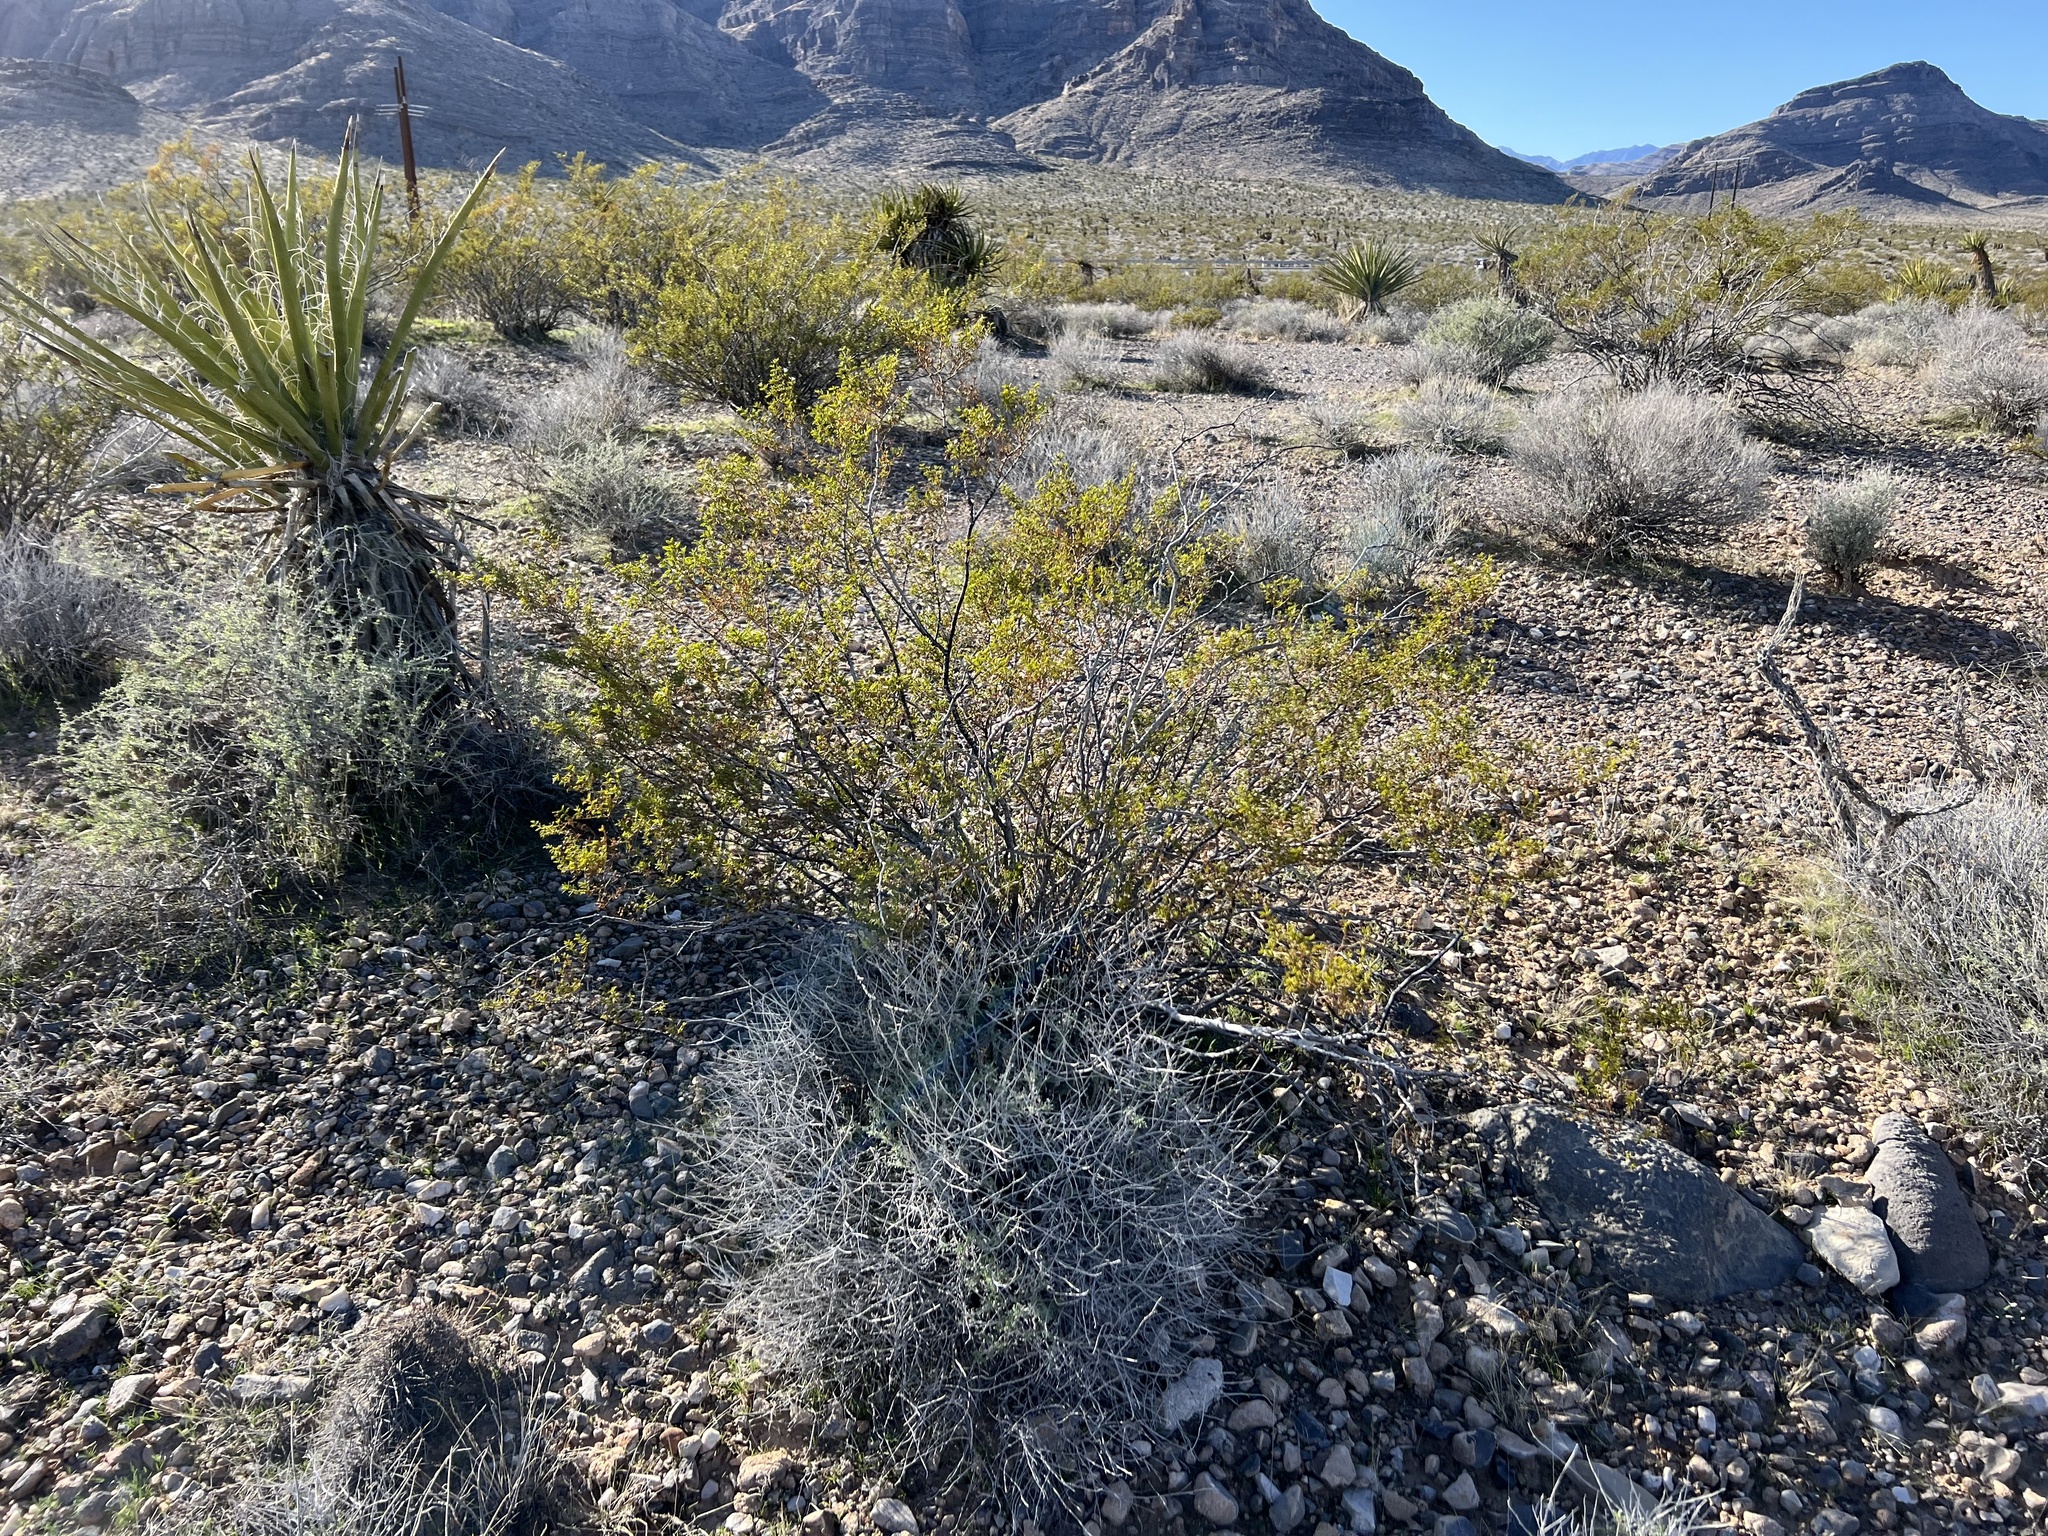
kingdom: Plantae
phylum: Tracheophyta
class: Magnoliopsida
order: Zygophyllales
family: Zygophyllaceae
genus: Larrea
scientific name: Larrea tridentata
